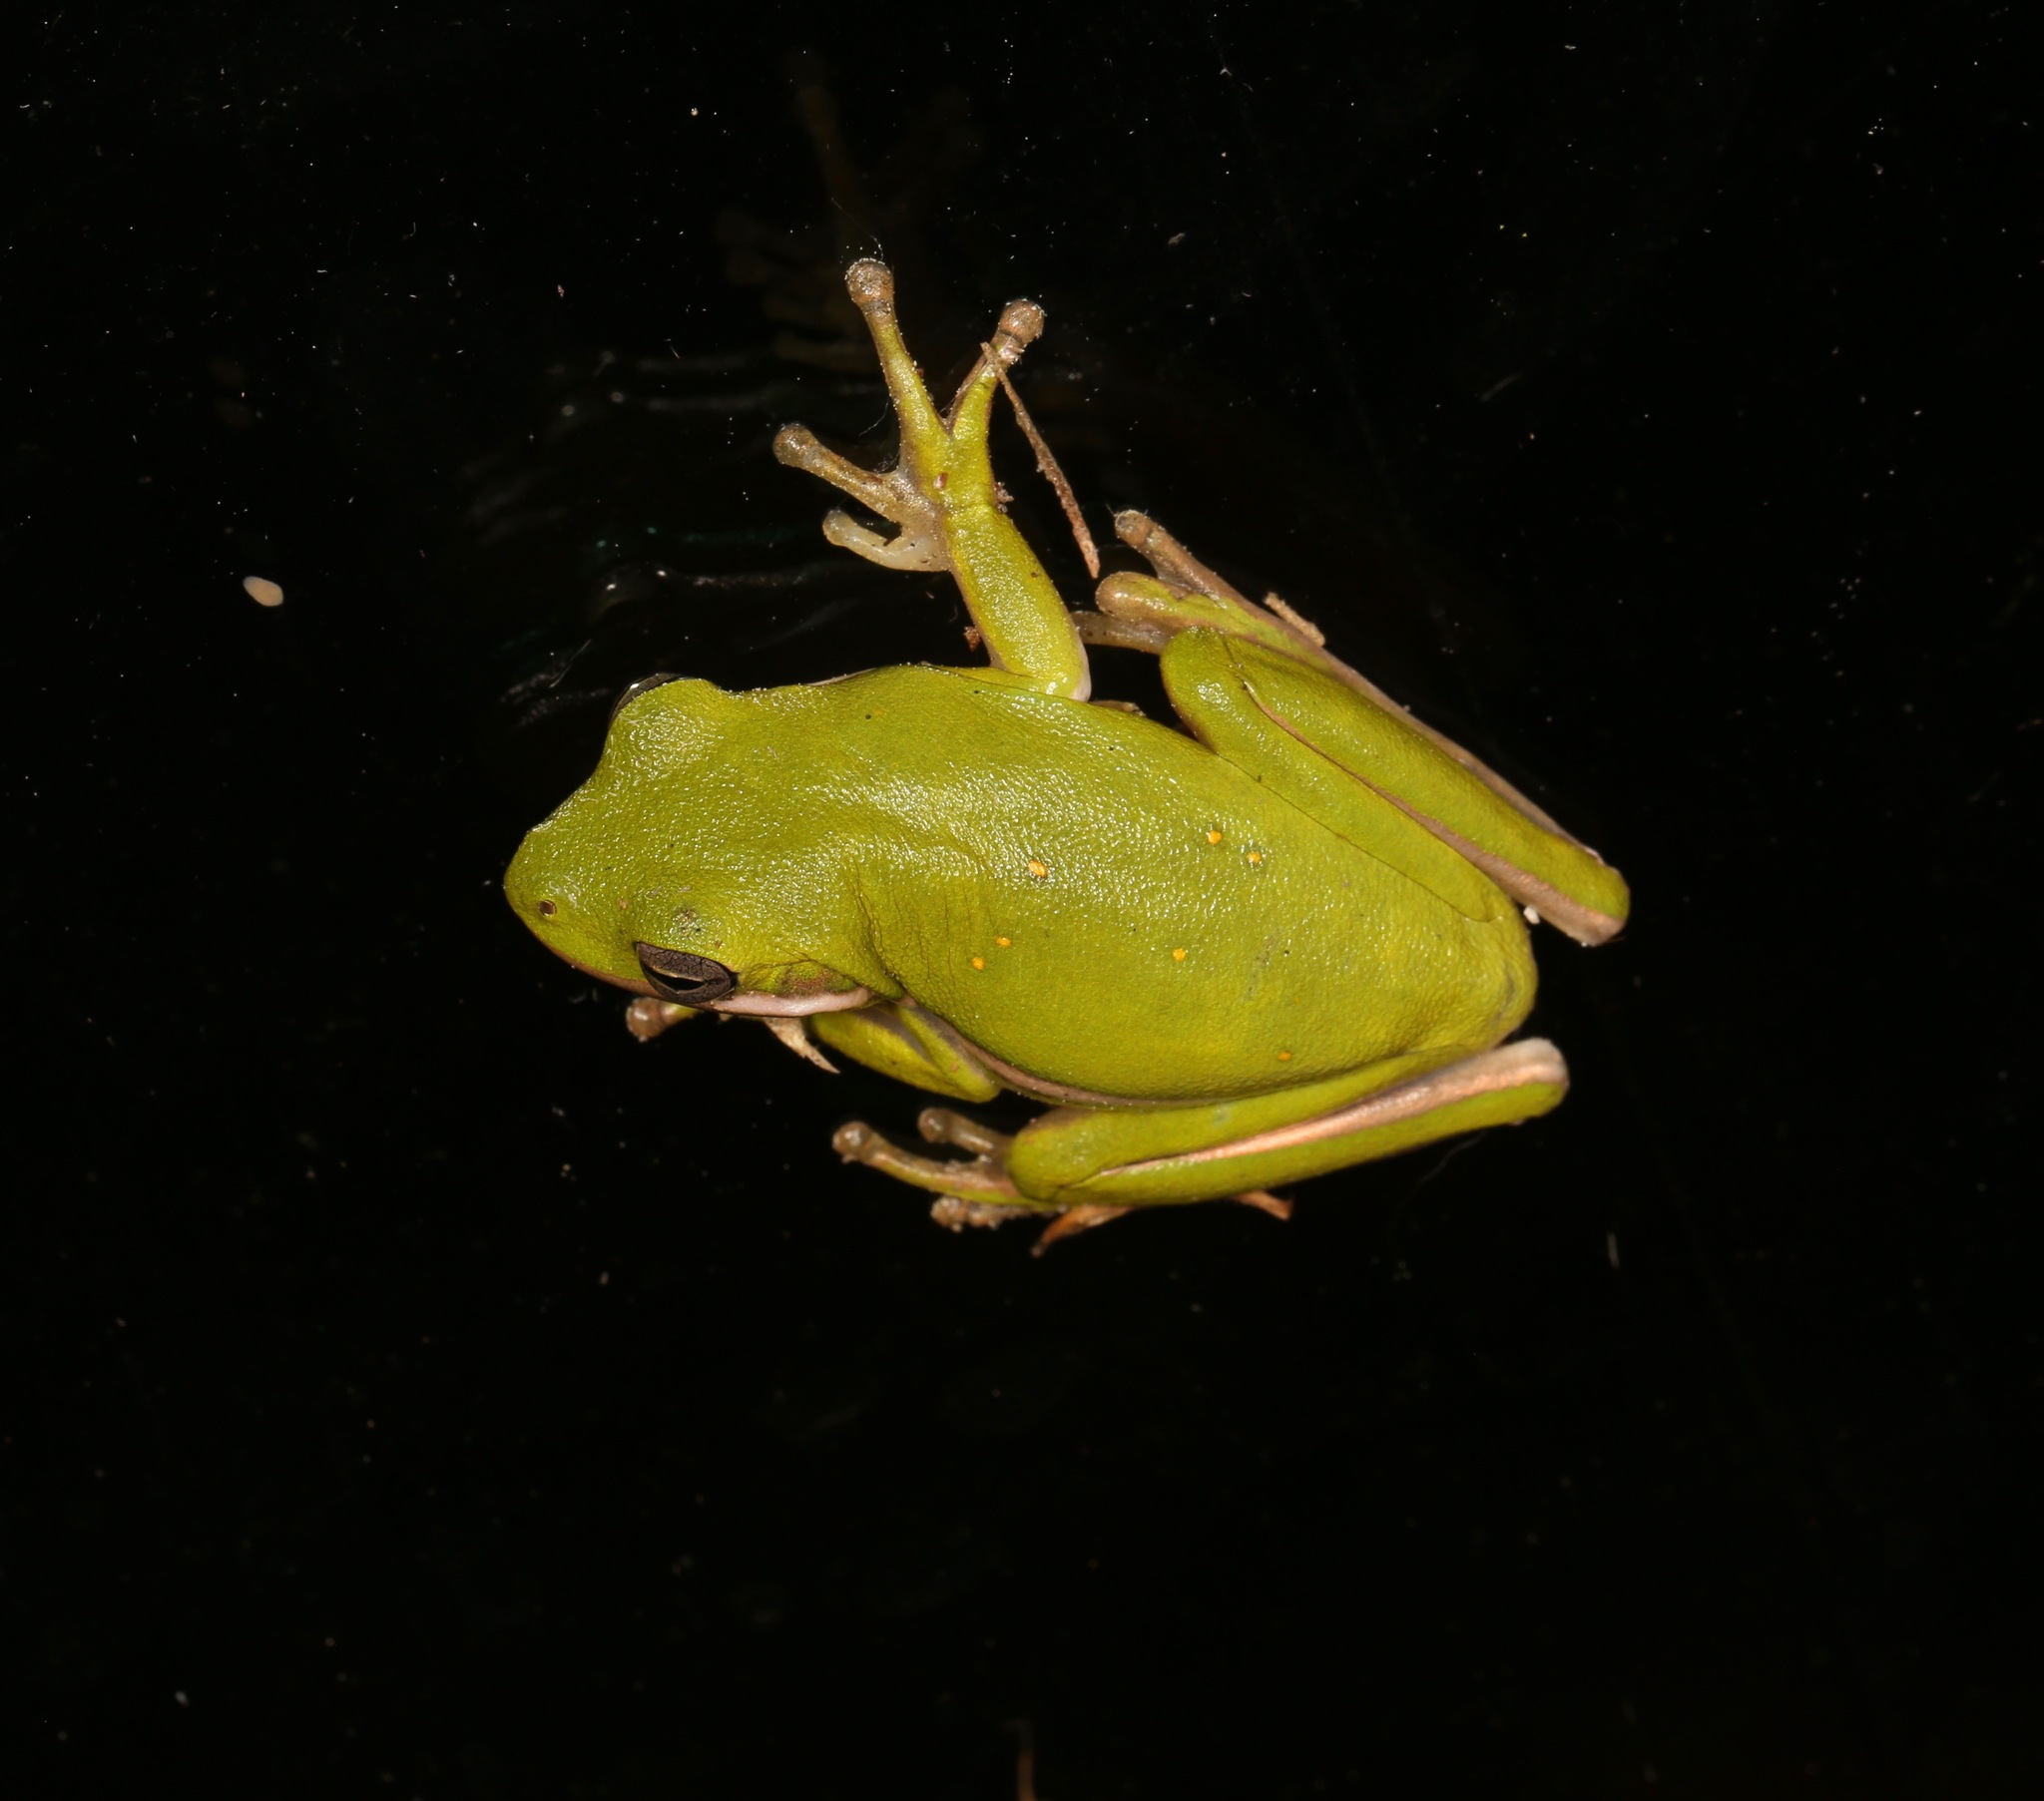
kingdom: Animalia
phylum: Chordata
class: Amphibia
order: Anura
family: Hylidae
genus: Dryophytes
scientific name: Dryophytes cinereus
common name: Green treefrog
